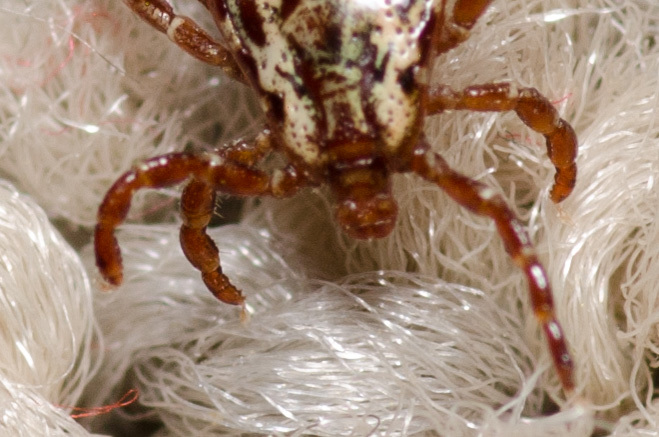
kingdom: Animalia
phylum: Arthropoda
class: Arachnida
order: Ixodida
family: Ixodidae
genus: Dermacentor
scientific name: Dermacentor variabilis
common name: American dog tick
